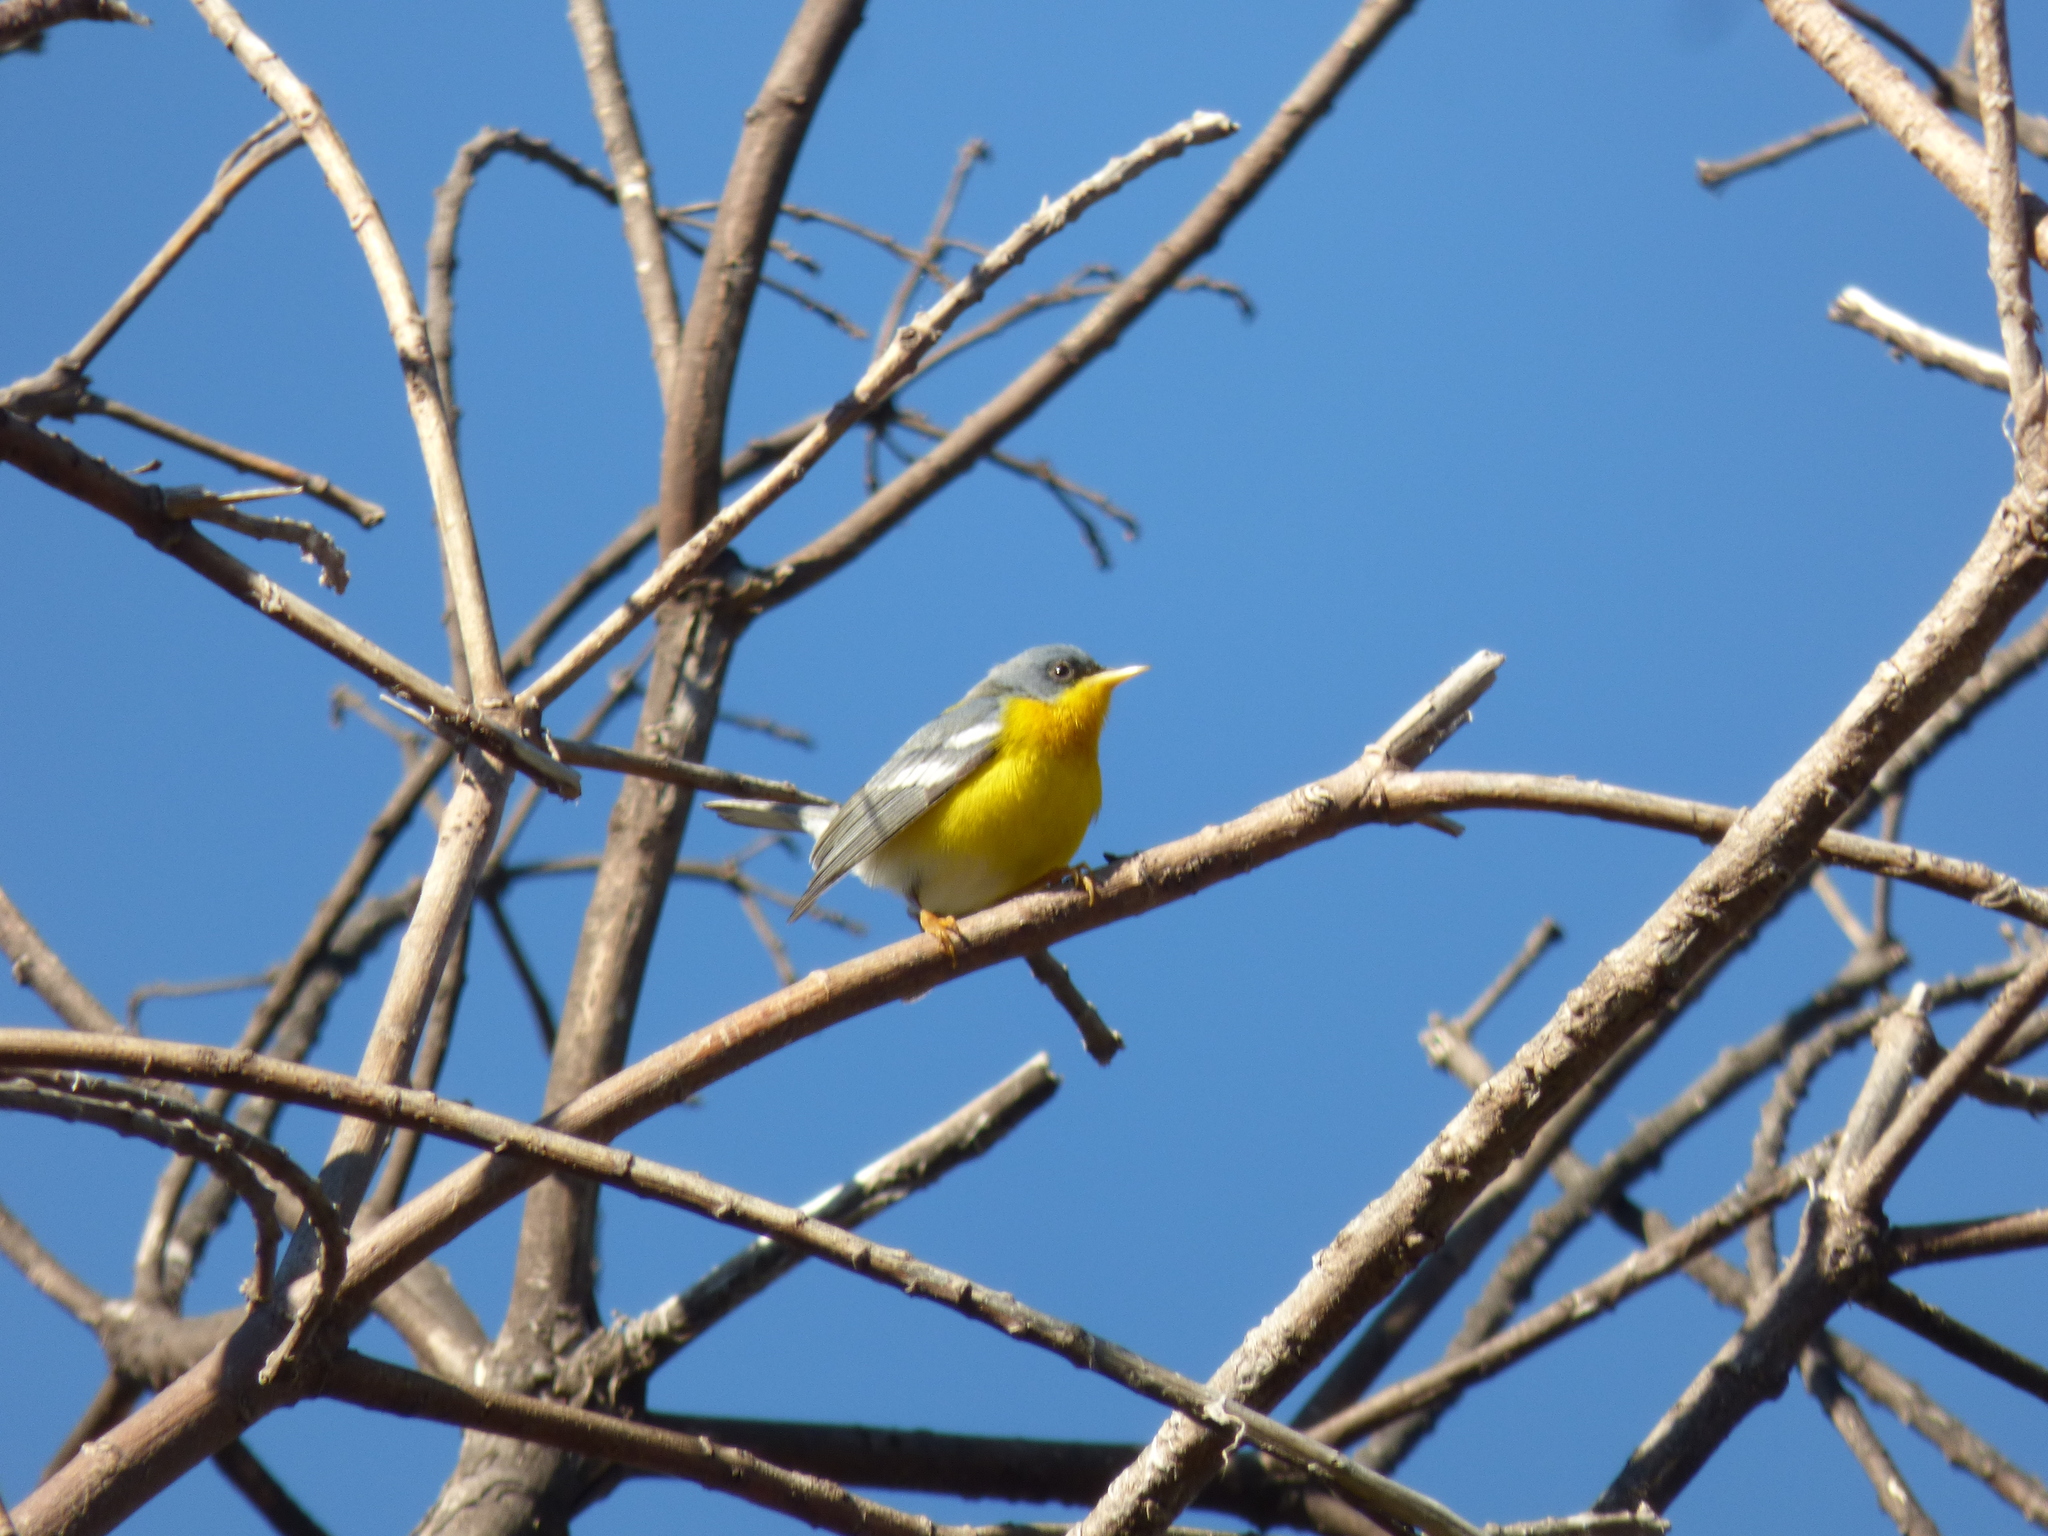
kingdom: Animalia
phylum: Chordata
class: Aves
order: Passeriformes
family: Parulidae
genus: Setophaga
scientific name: Setophaga pitiayumi
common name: Tropical parula
